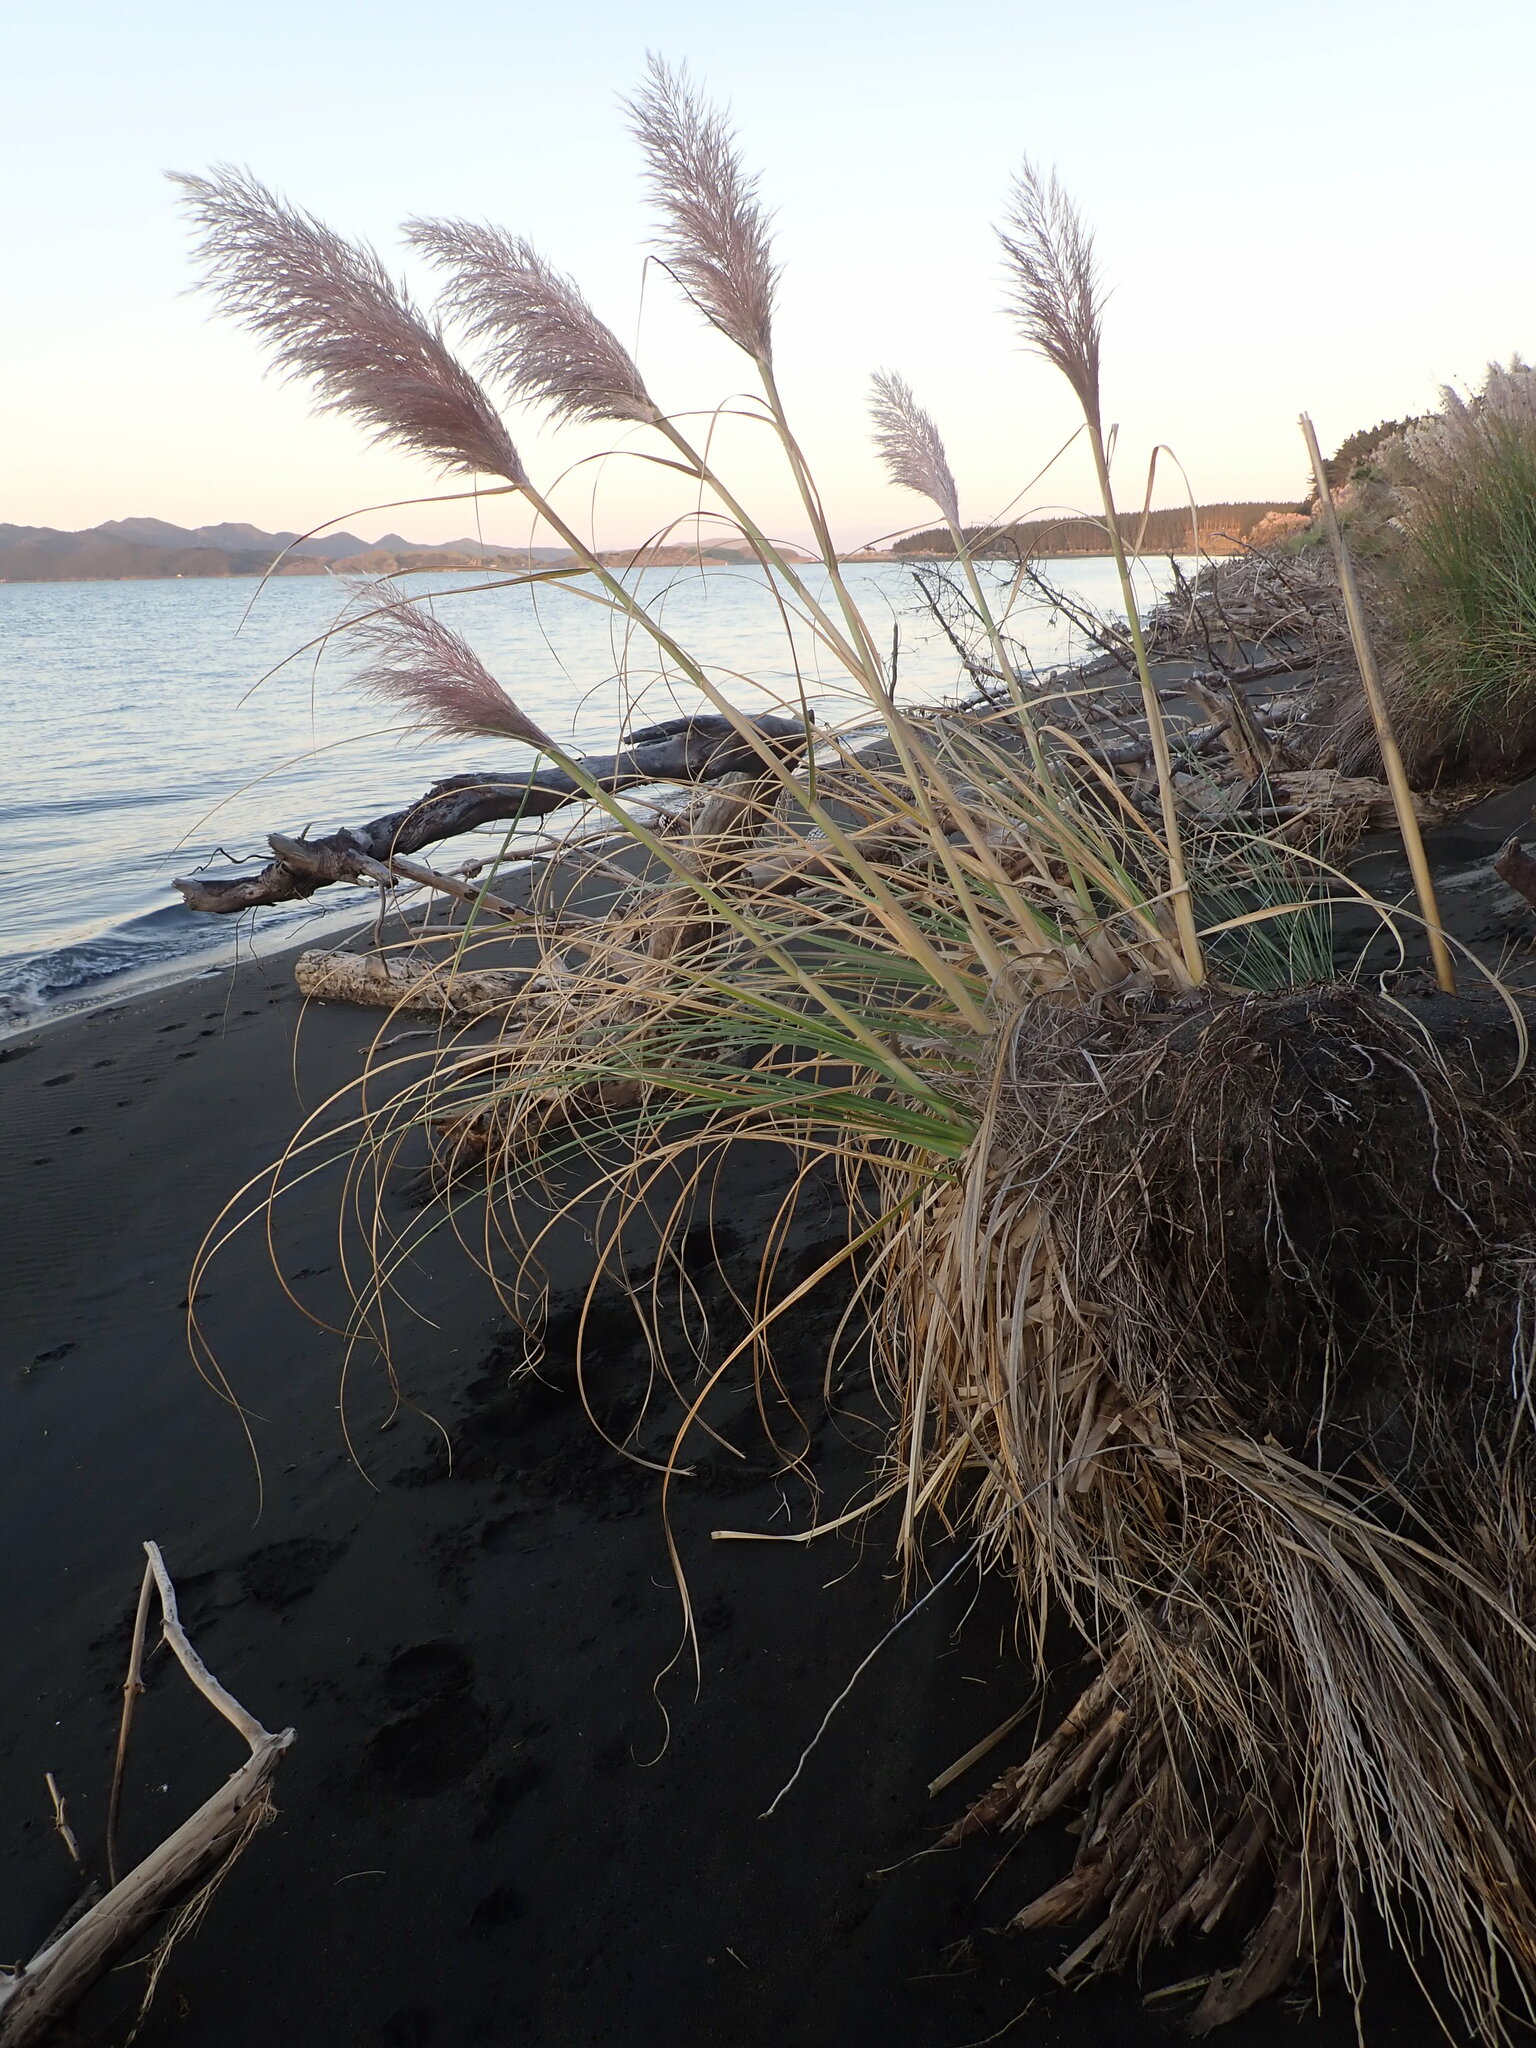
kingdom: Plantae
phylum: Tracheophyta
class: Liliopsida
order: Poales
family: Poaceae
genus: Cortaderia
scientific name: Cortaderia selloana
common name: Uruguayan pampas grass
